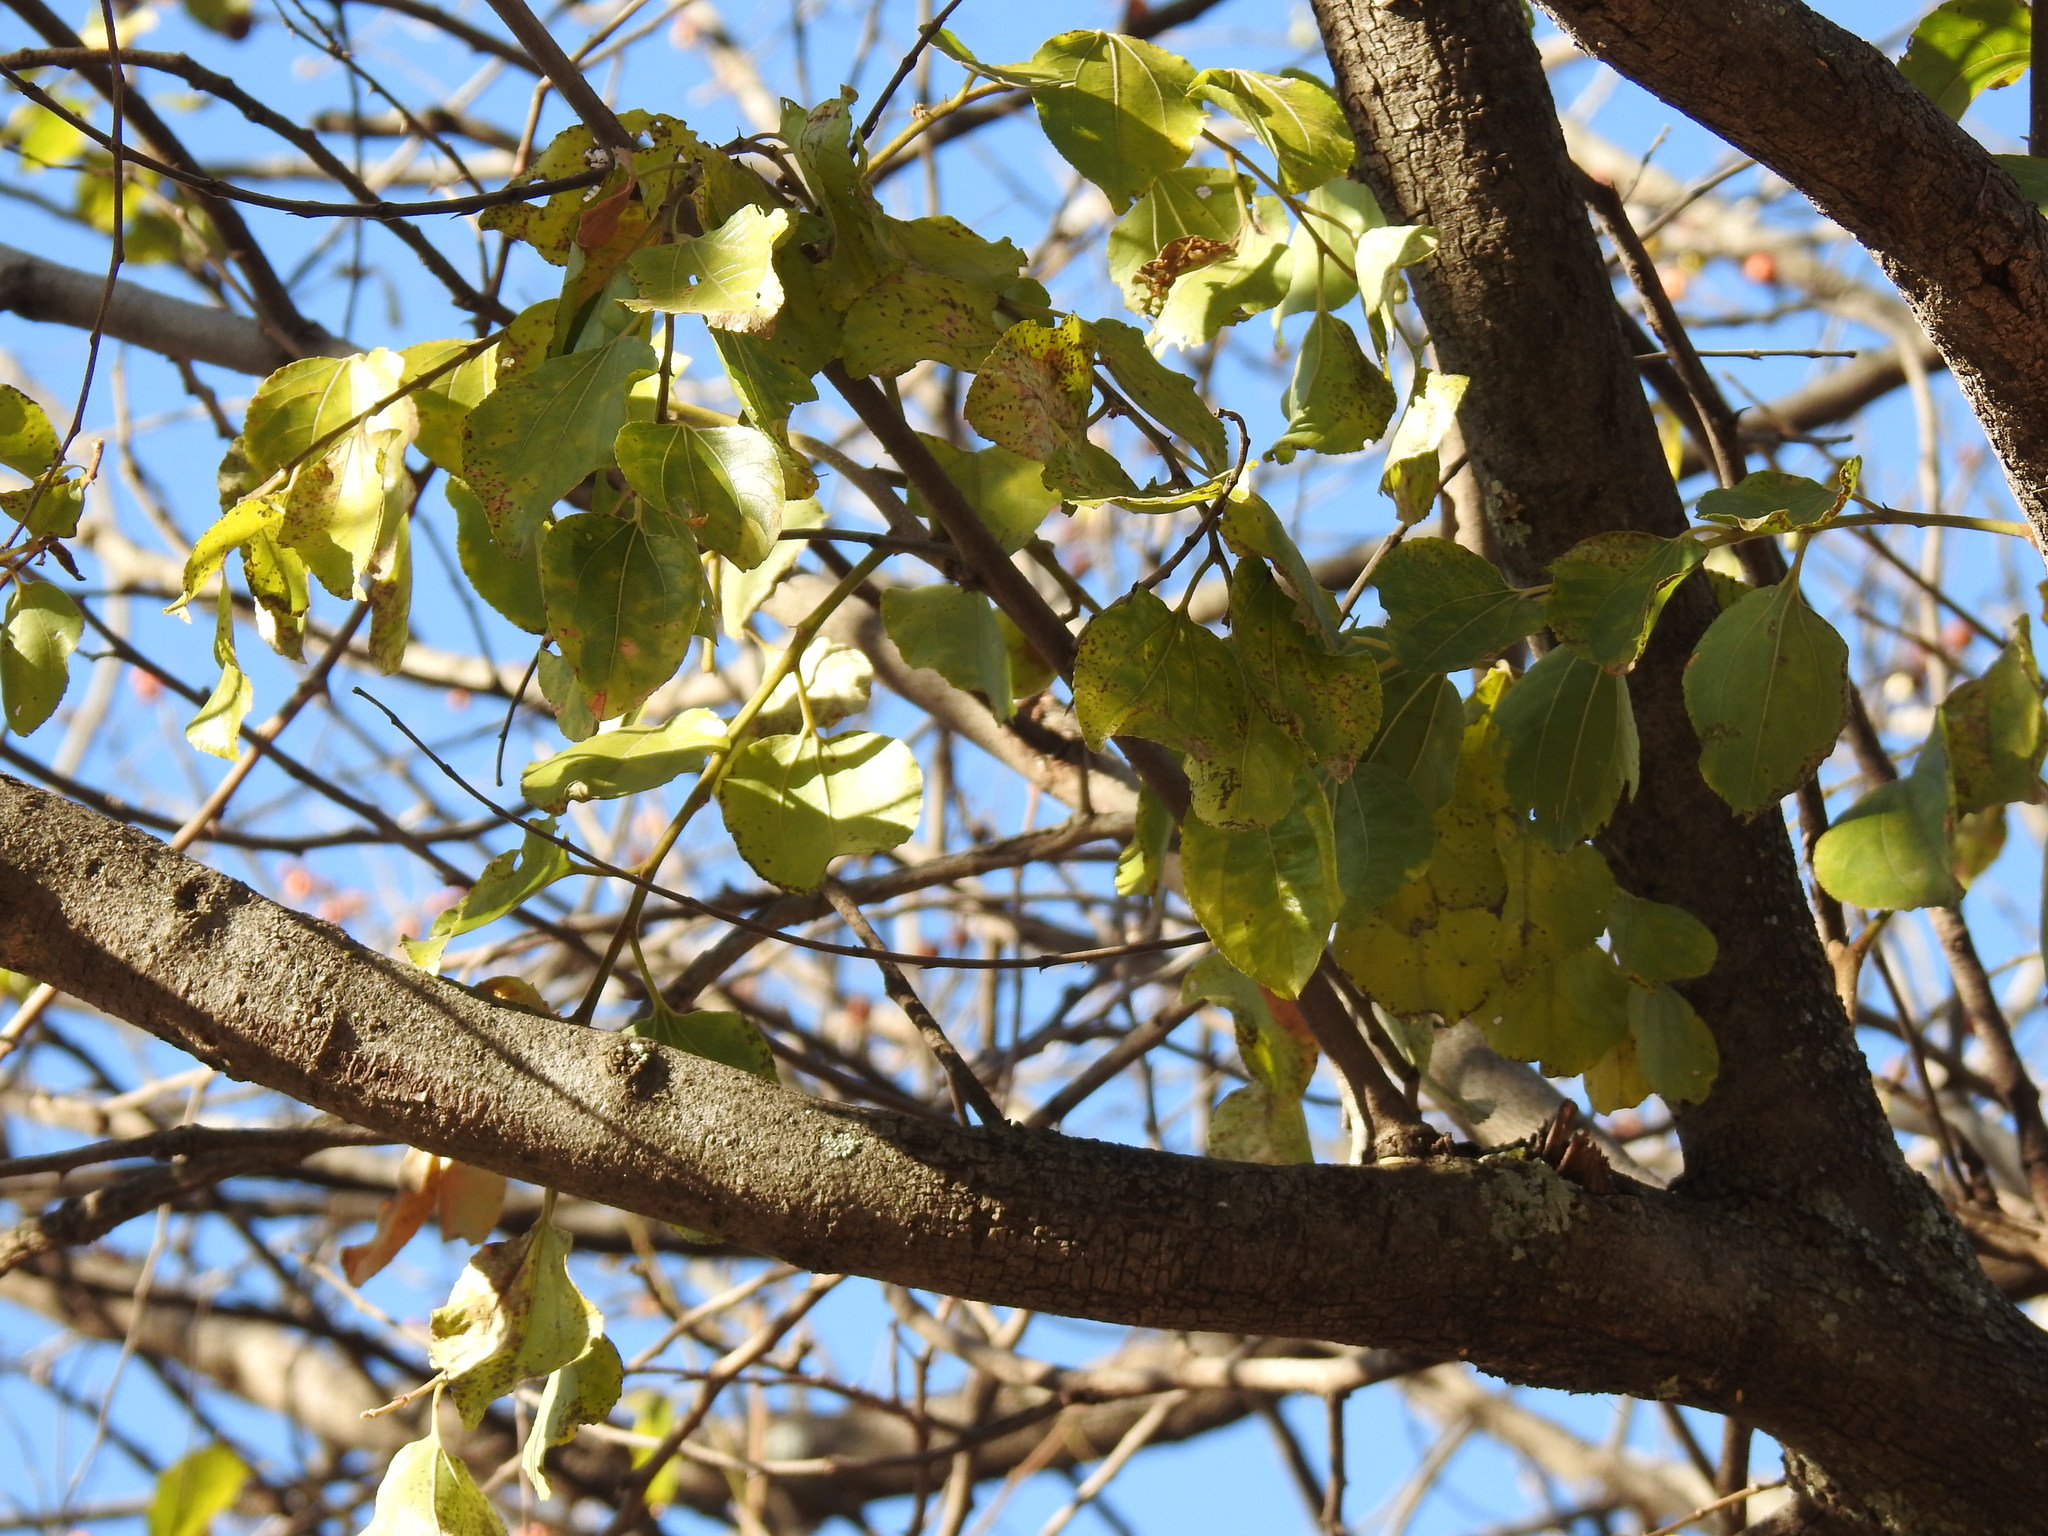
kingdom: Plantae
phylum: Tracheophyta
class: Magnoliopsida
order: Rosales
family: Rhamnaceae
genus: Ziziphus
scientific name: Ziziphus mucronata
